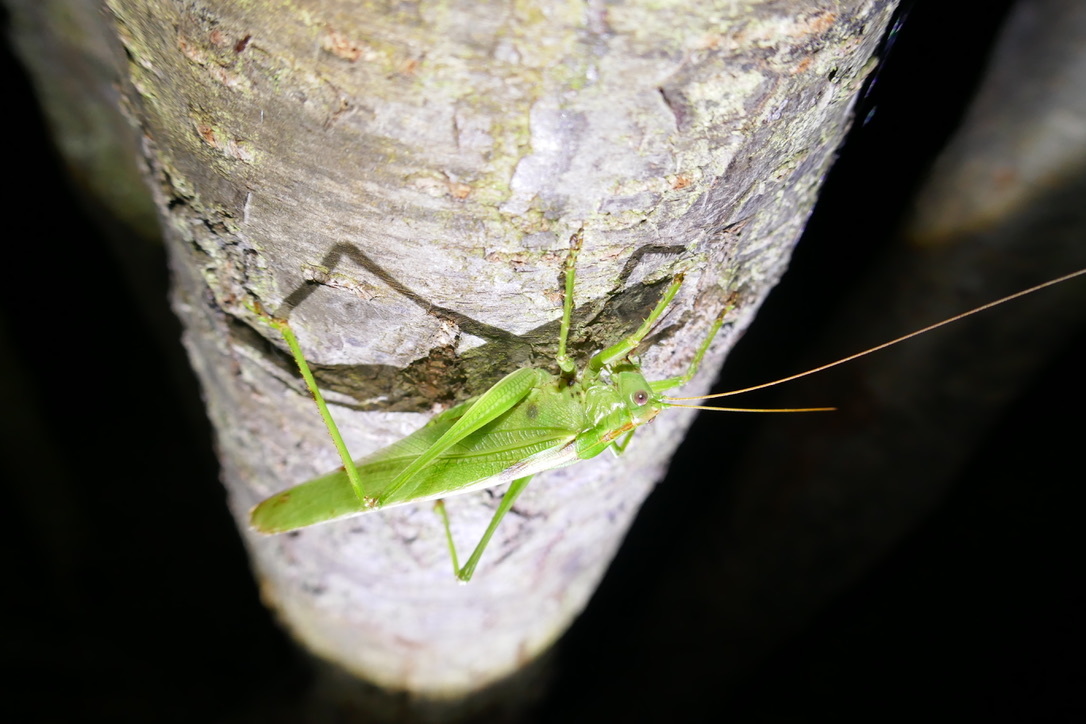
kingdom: Animalia
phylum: Arthropoda
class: Insecta
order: Orthoptera
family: Tettigoniidae
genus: Tettigonia
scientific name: Tettigonia viridissima
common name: Great green bush-cricket
